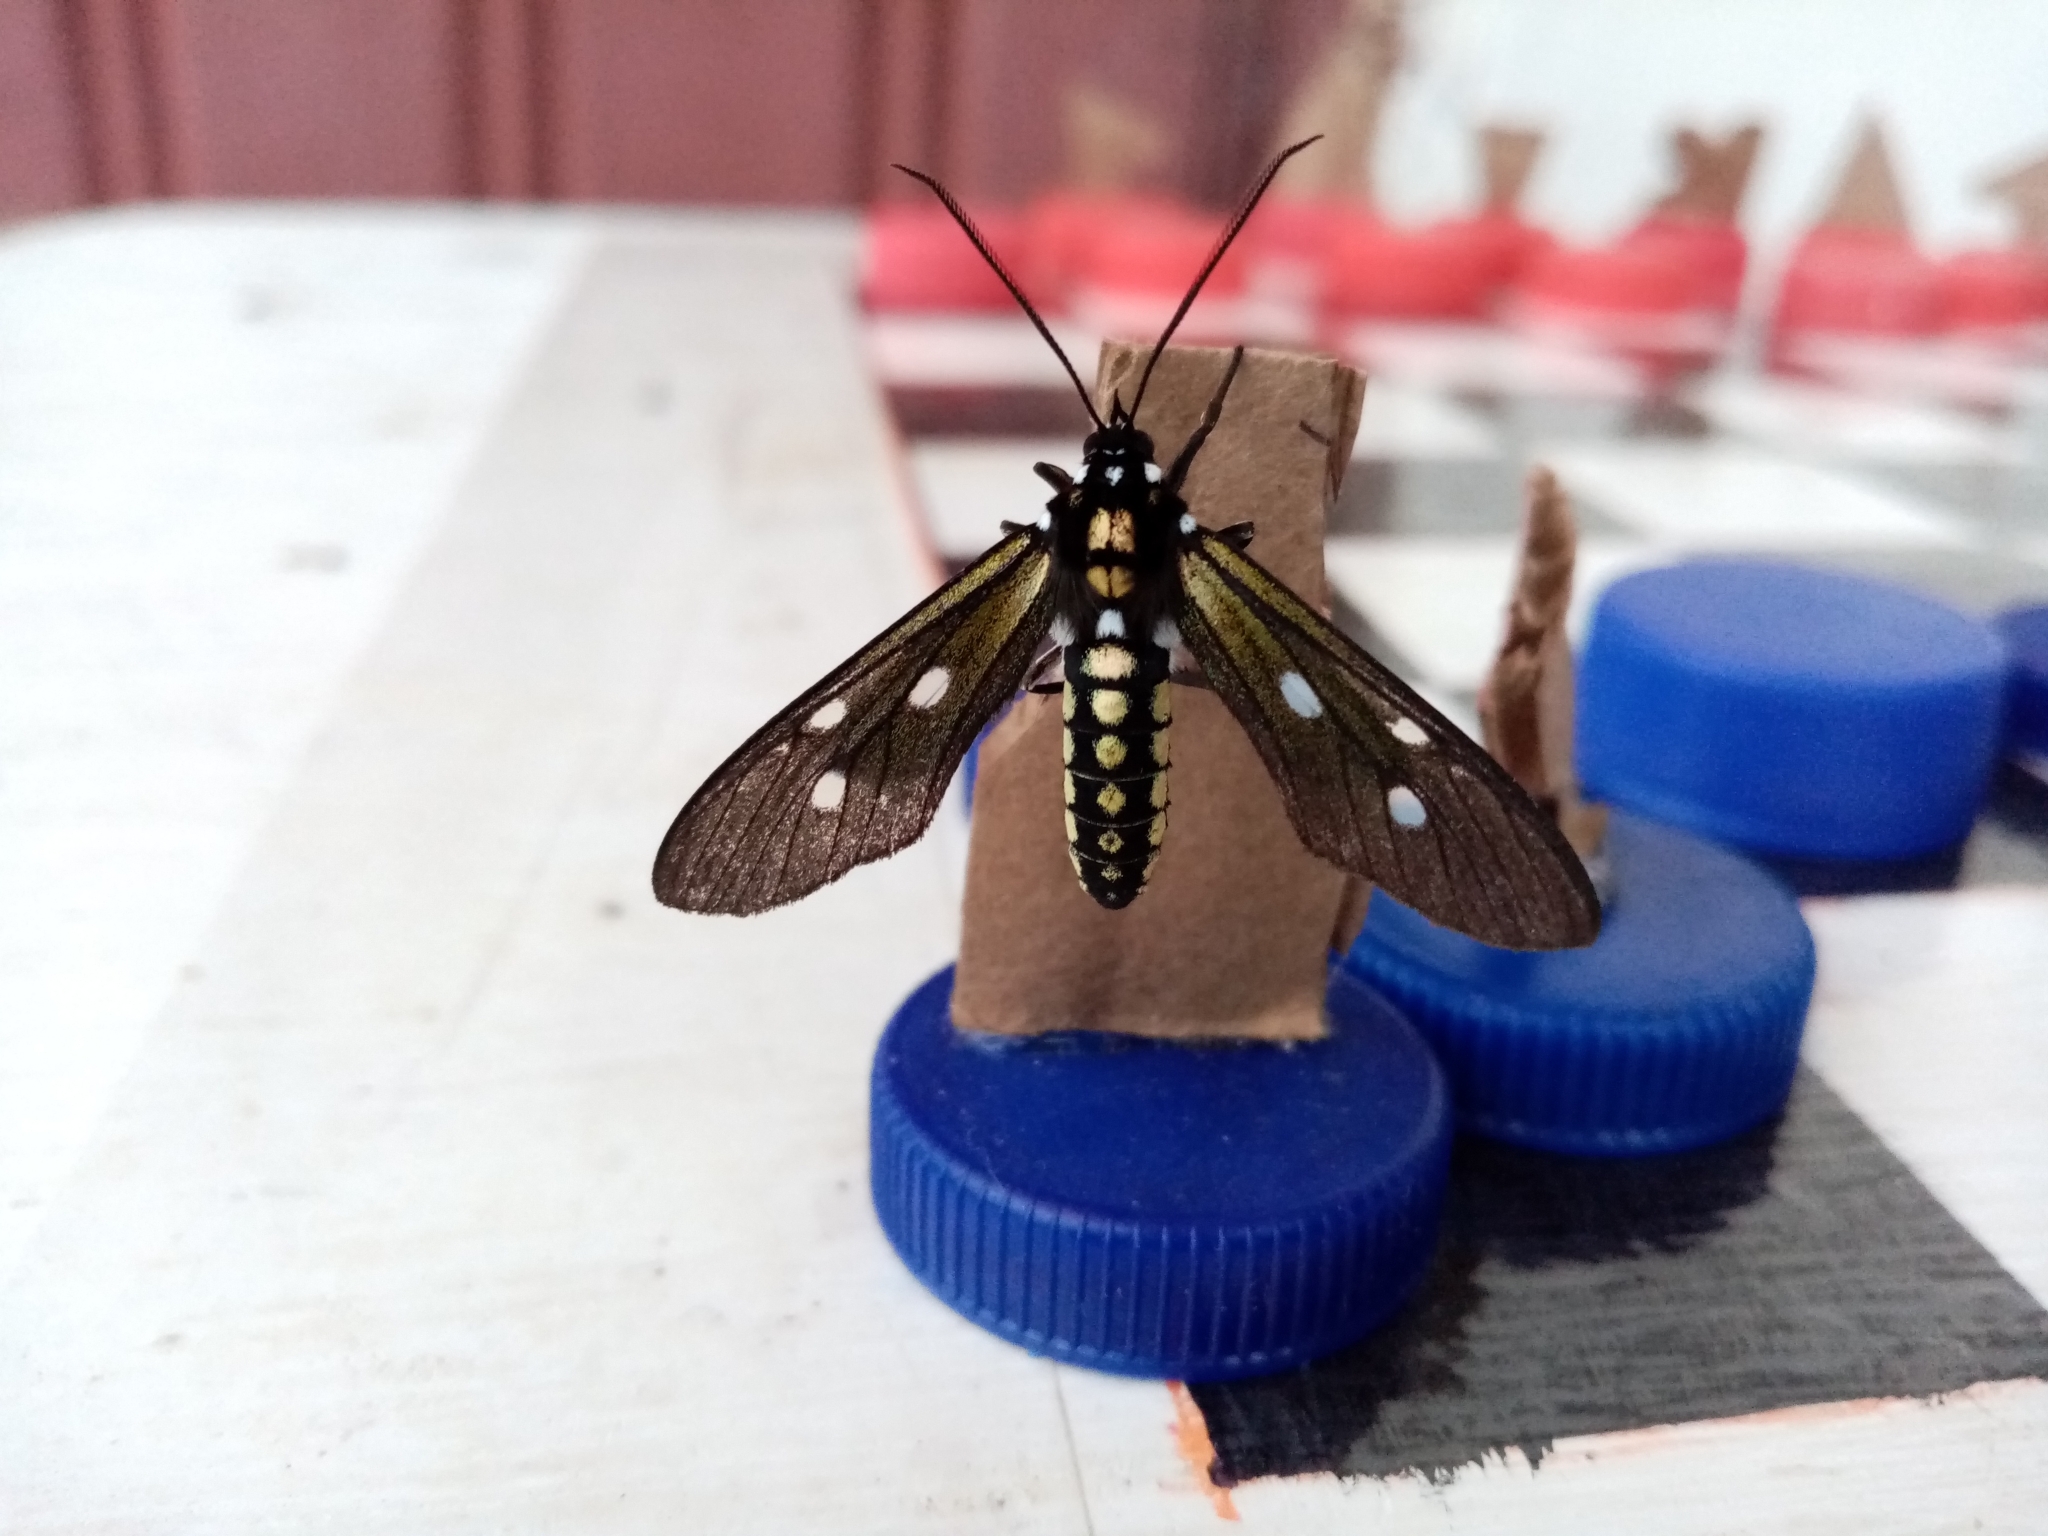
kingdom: Animalia
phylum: Arthropoda
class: Insecta
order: Lepidoptera
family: Erebidae
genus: Calonotos
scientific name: Calonotos dorata
